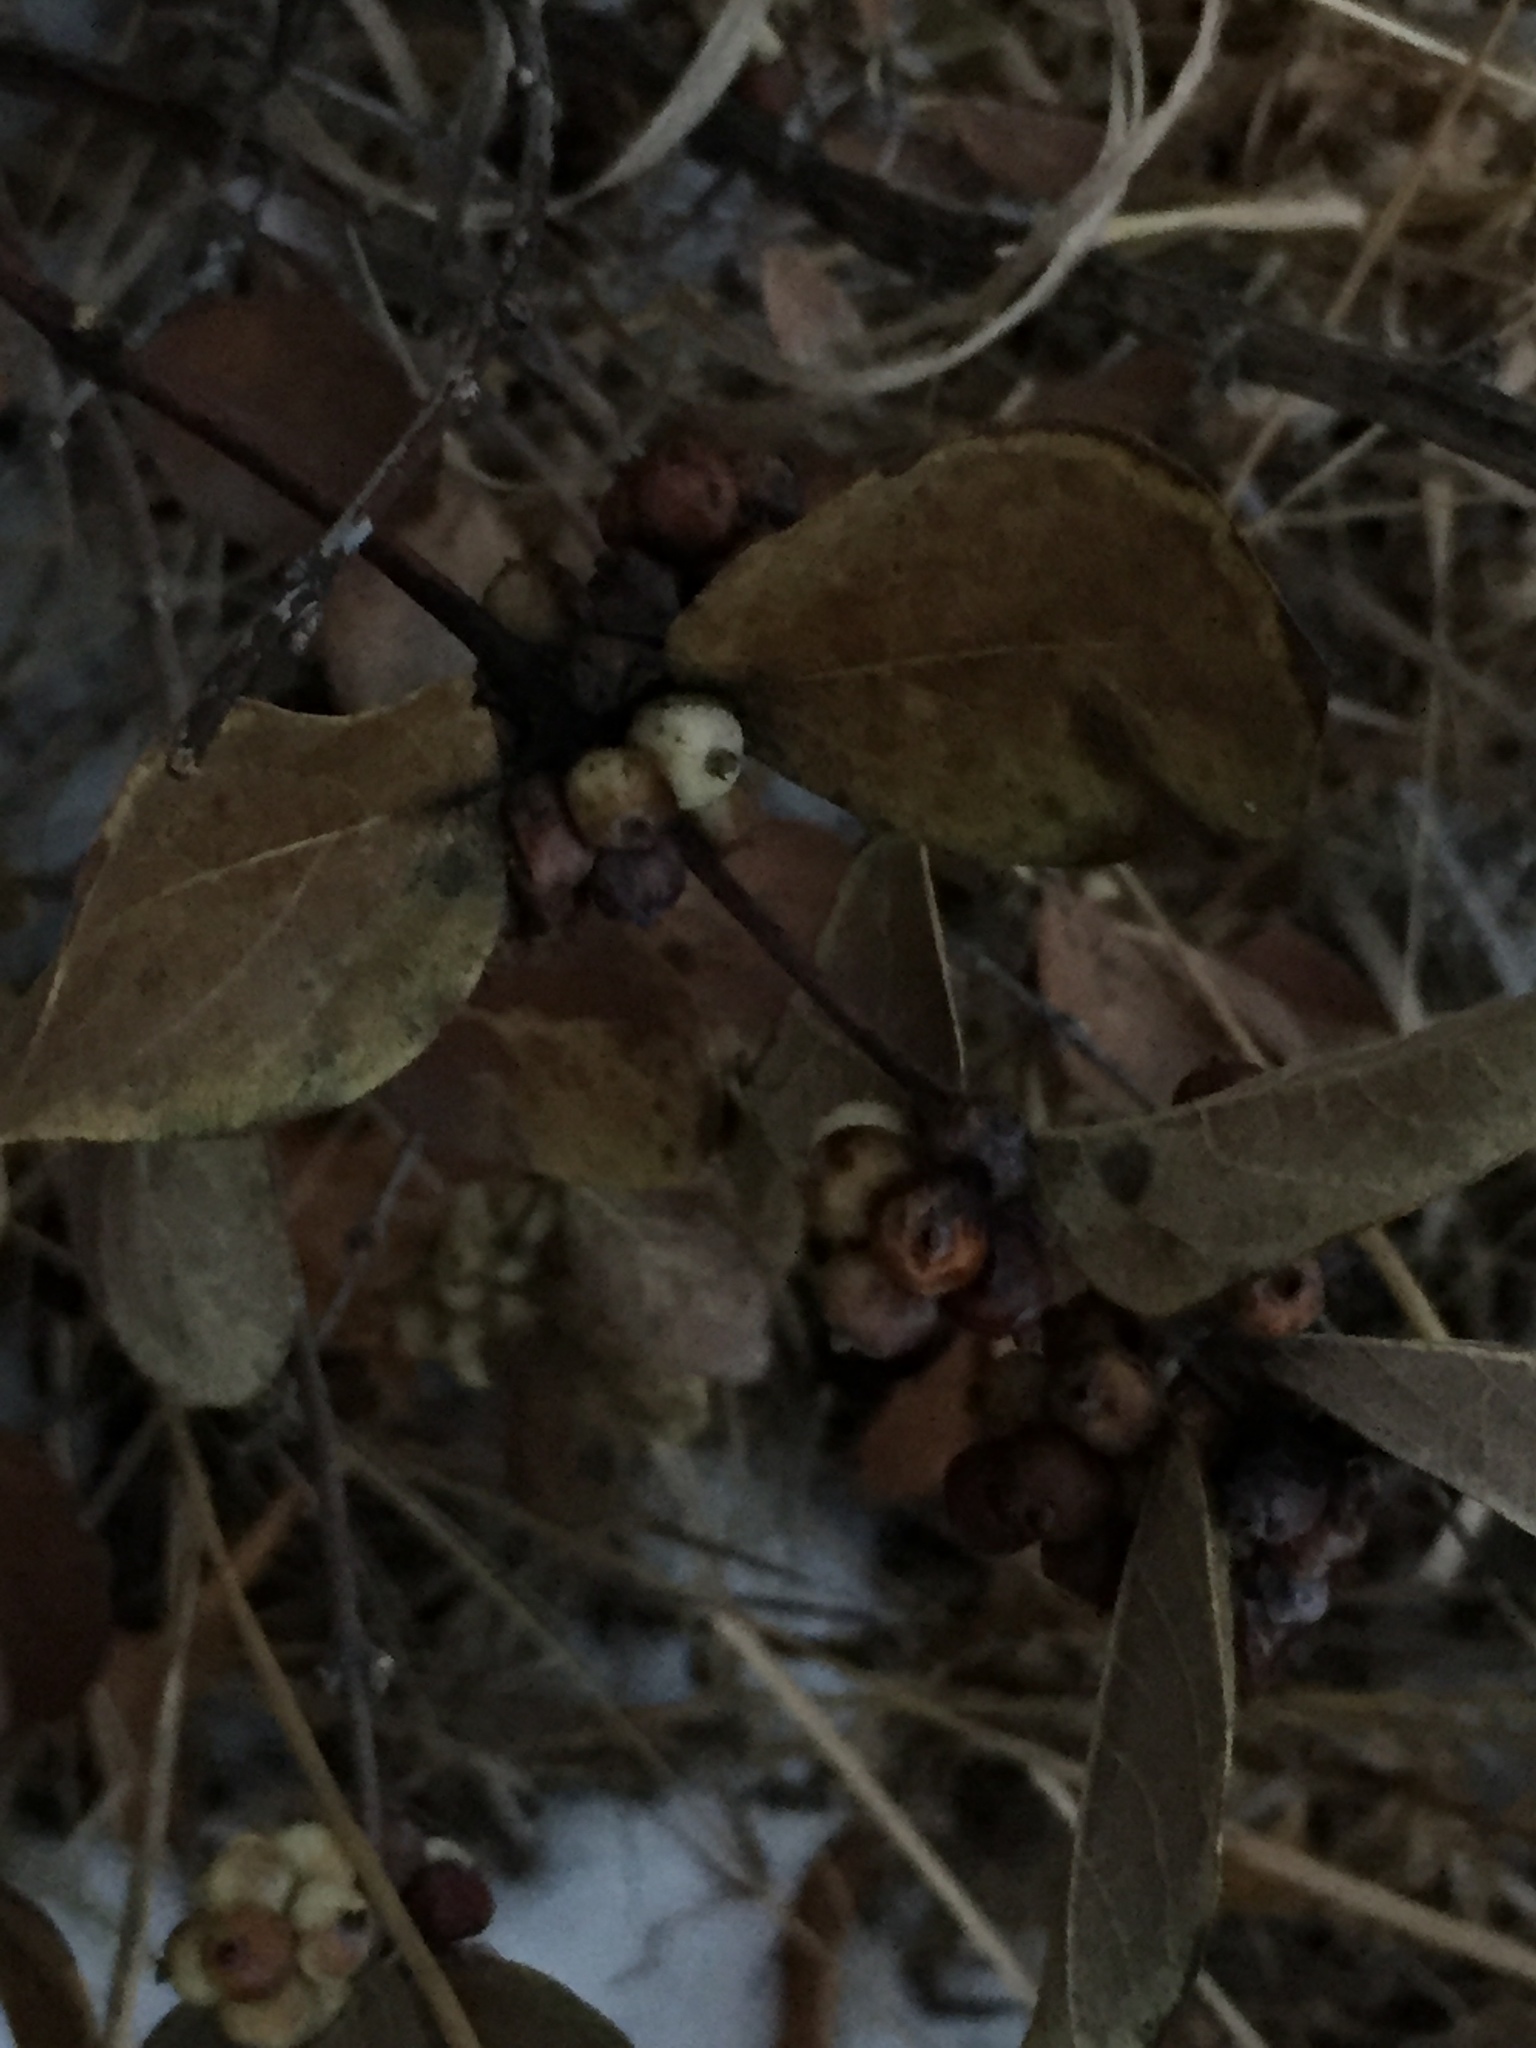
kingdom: Plantae
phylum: Tracheophyta
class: Magnoliopsida
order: Dipsacales
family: Caprifoliaceae
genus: Symphoricarpos
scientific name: Symphoricarpos occidentalis
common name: Wolfberry
